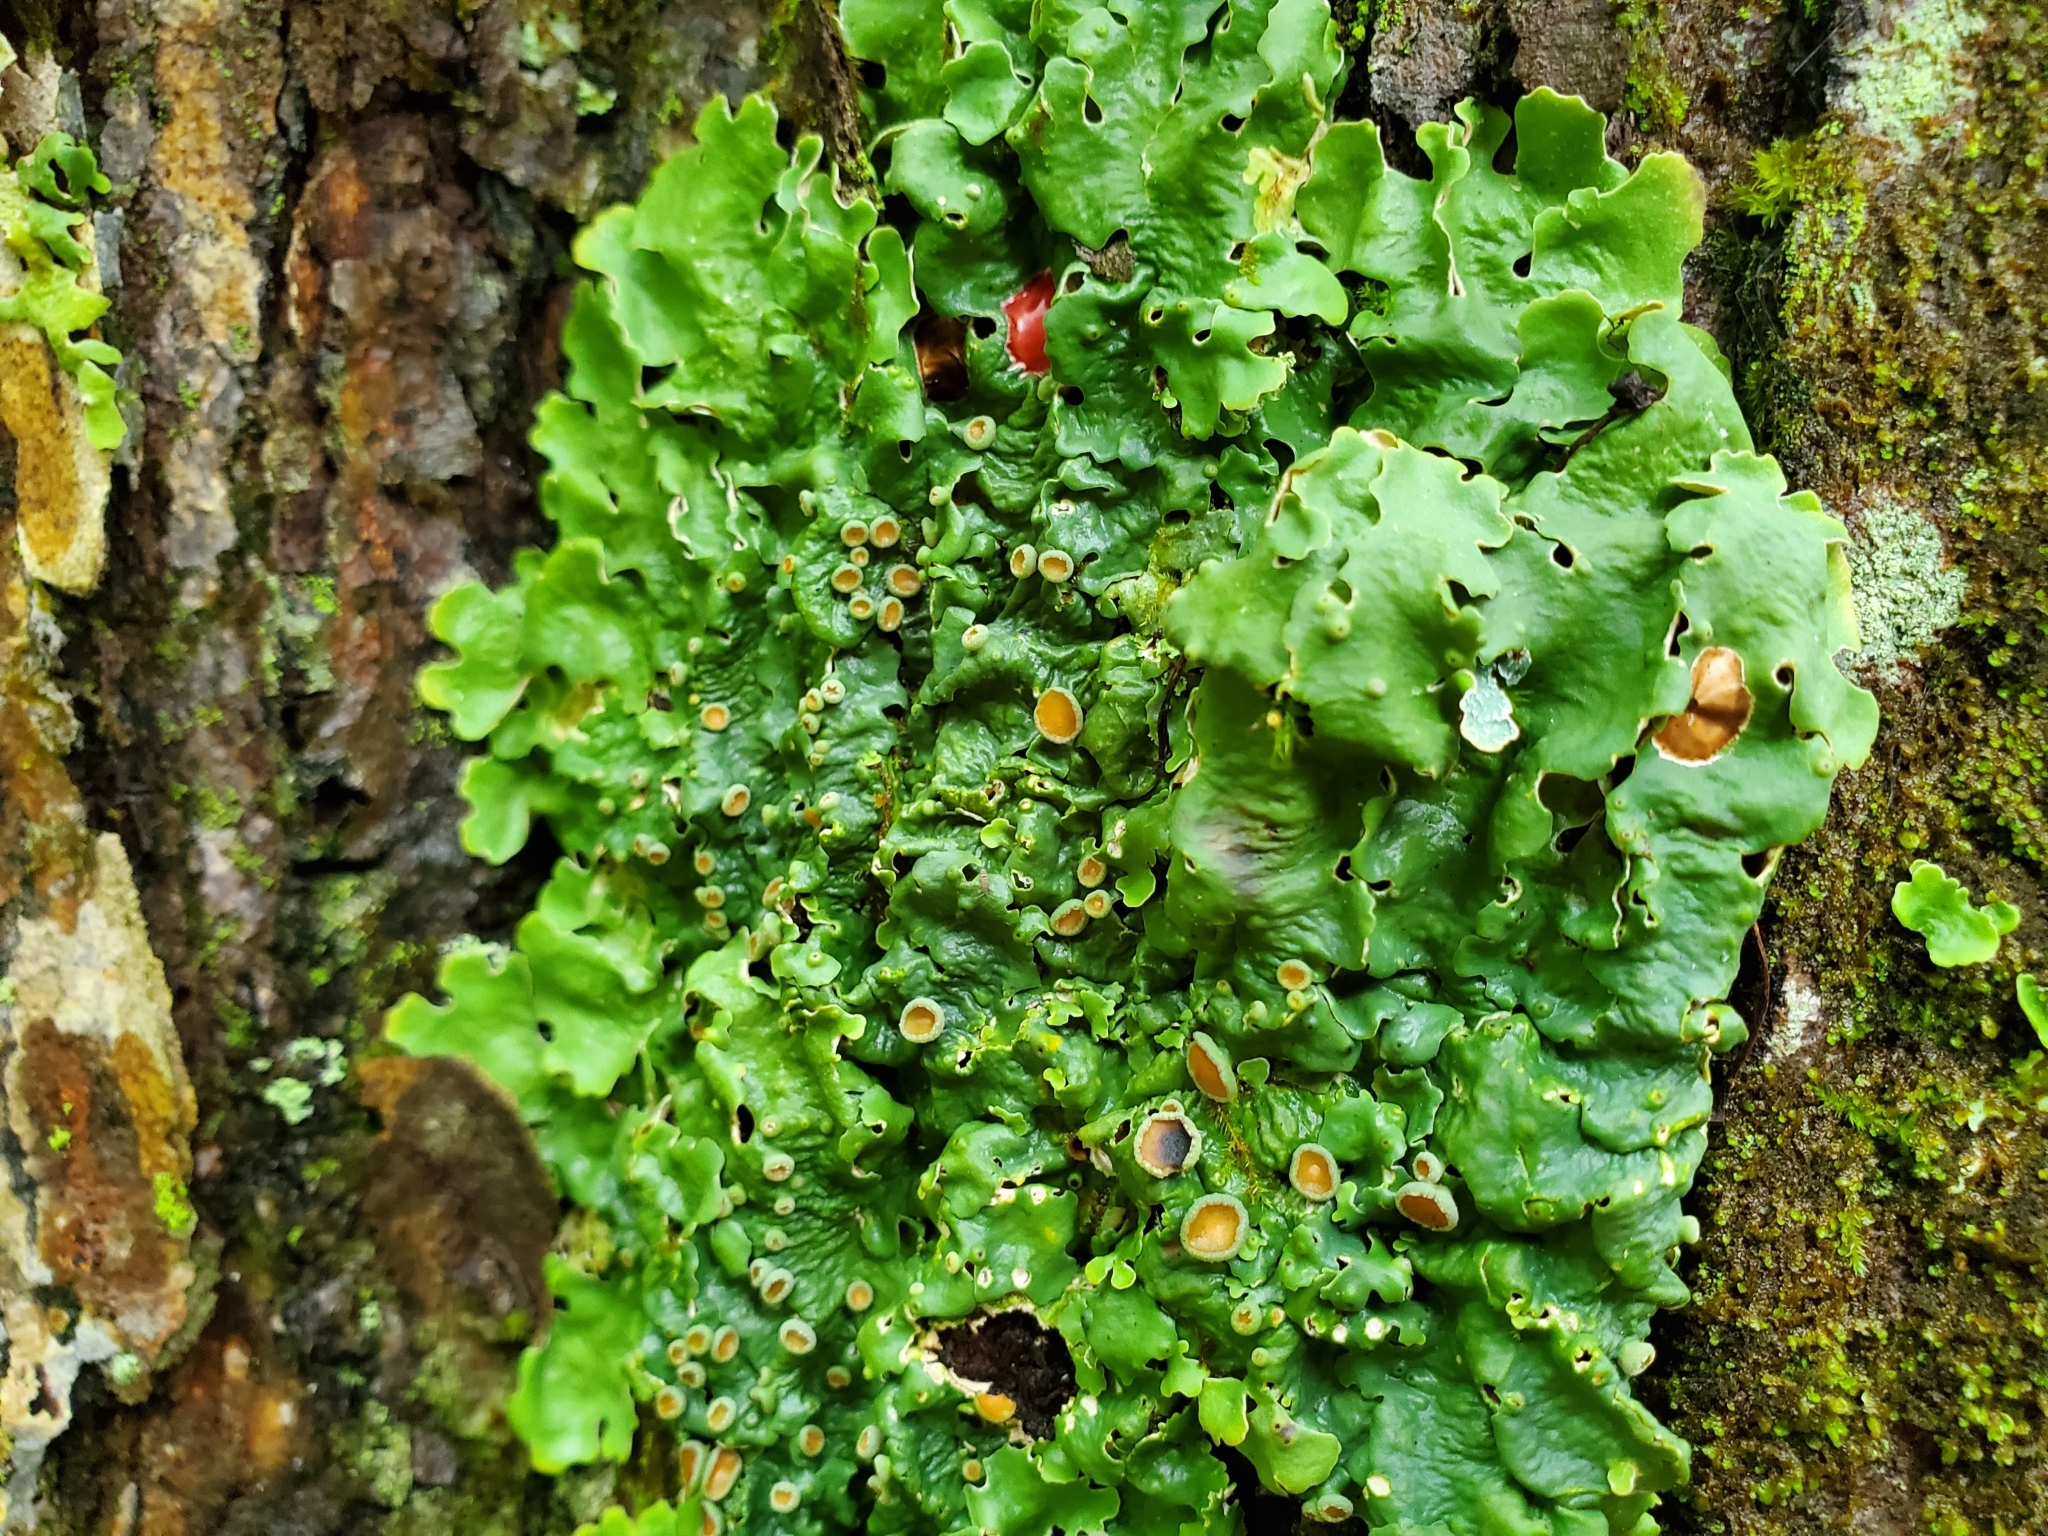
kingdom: Fungi
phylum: Ascomycota
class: Lecanoromycetes
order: Peltigerales
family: Lobariaceae
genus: Ricasolia
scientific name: Ricasolia quercizans
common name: Smooth lungwort
